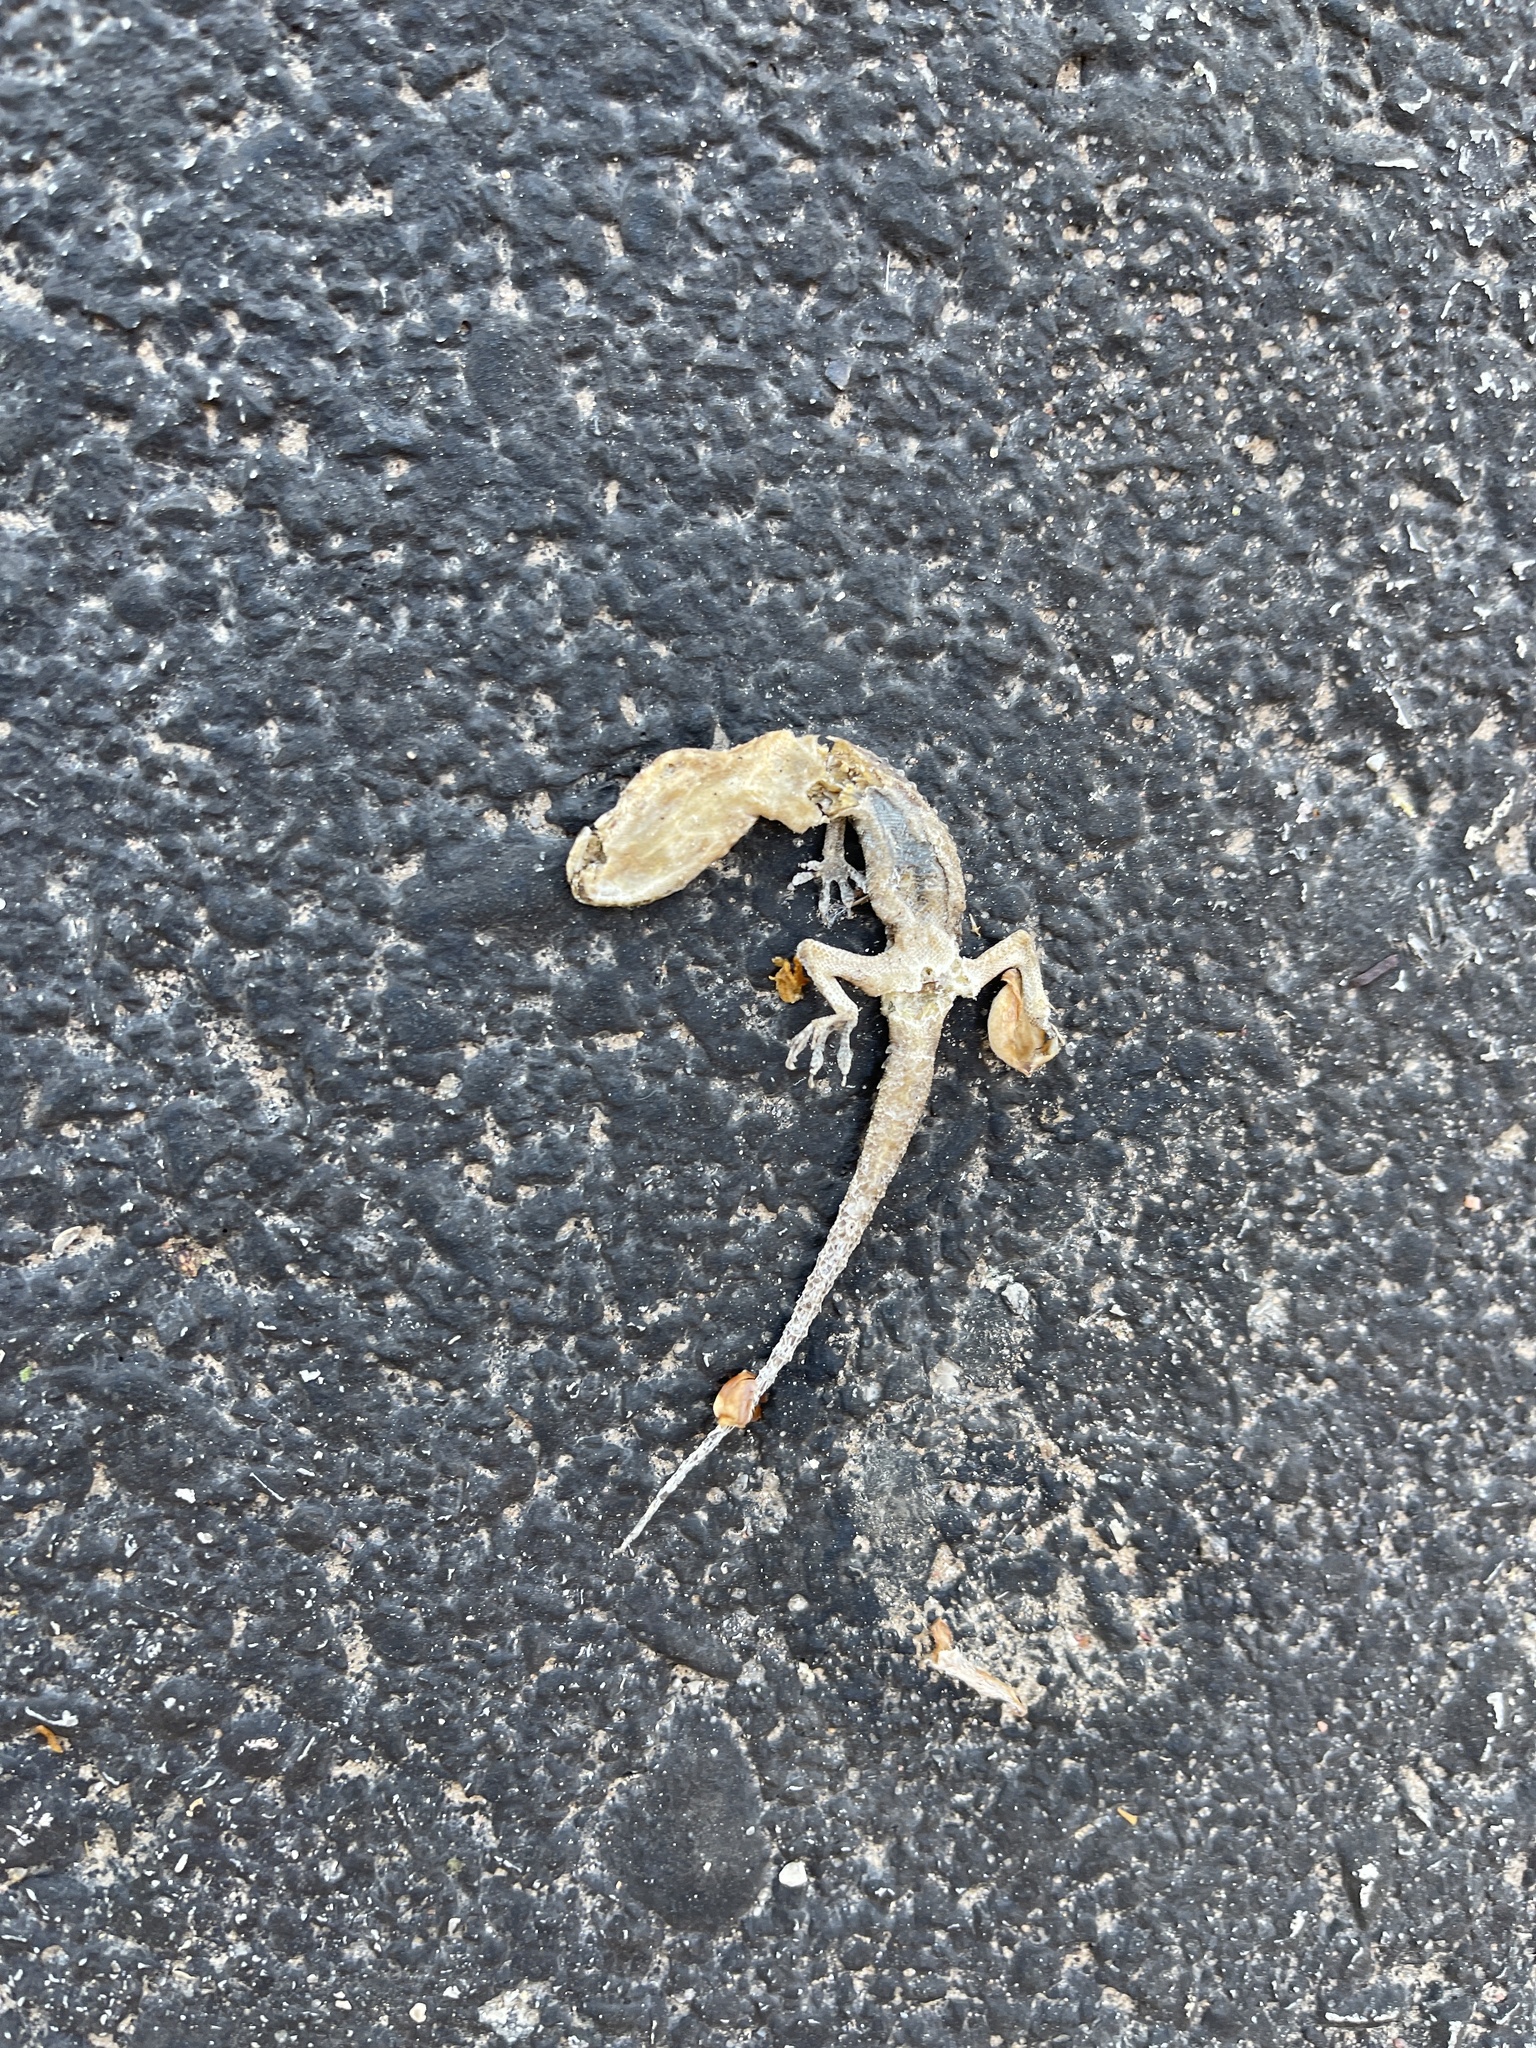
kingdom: Animalia
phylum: Chordata
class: Squamata
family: Gekkonidae
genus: Hemidactylus
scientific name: Hemidactylus turcicus
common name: Turkish gecko
